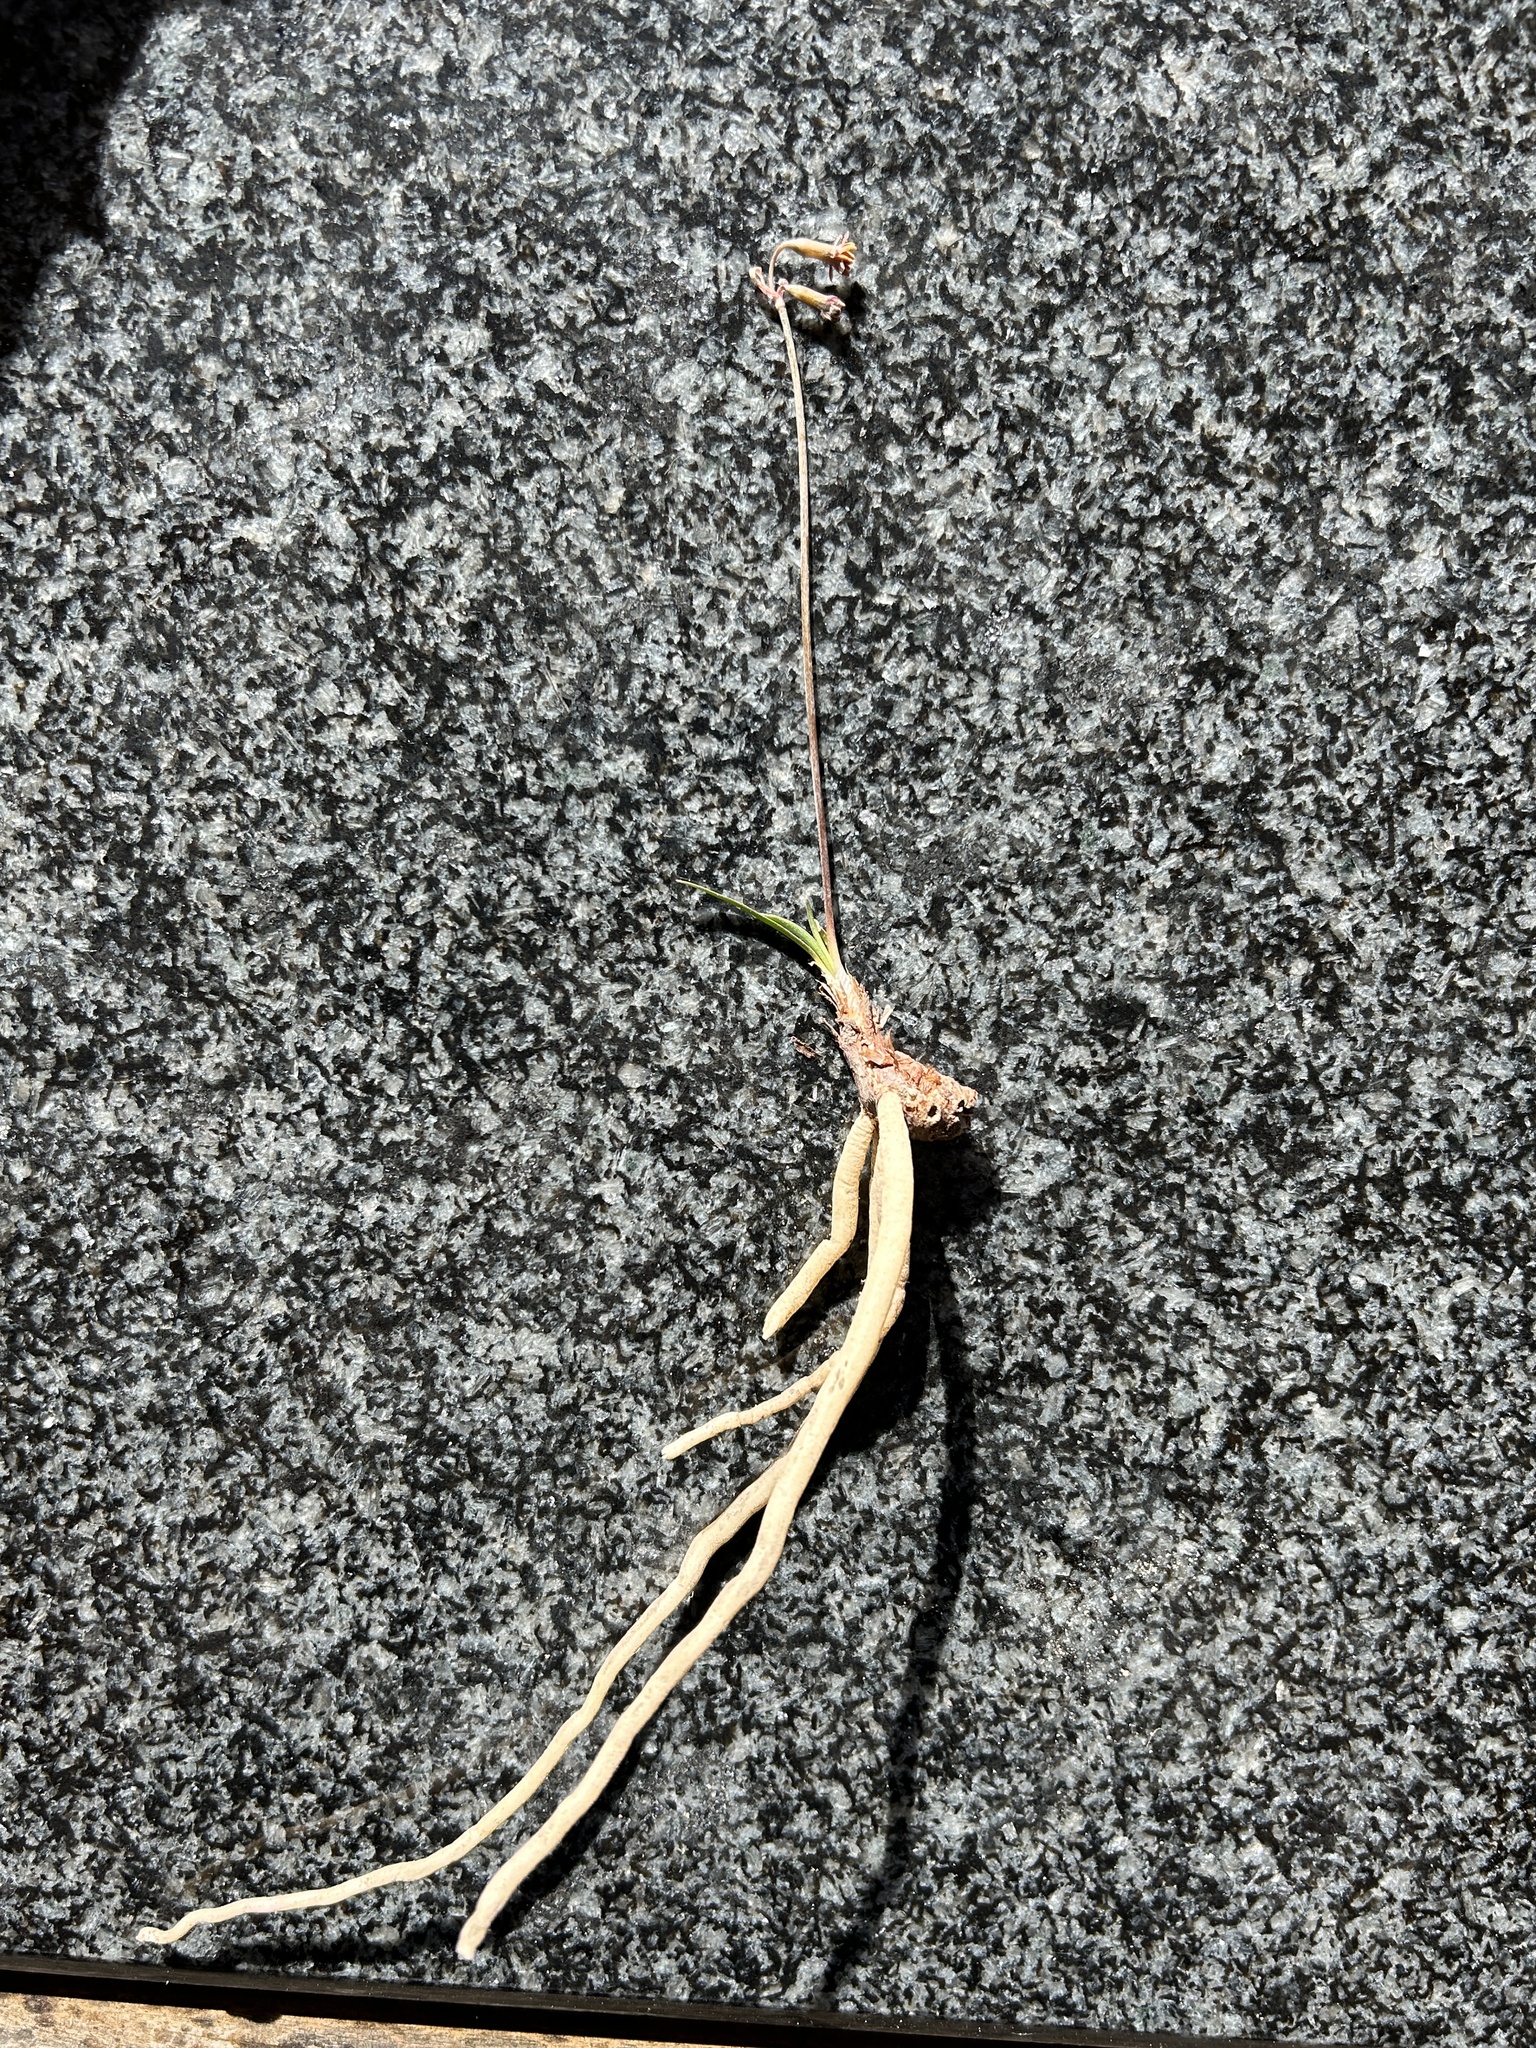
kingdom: Plantae
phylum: Tracheophyta
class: Liliopsida
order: Asparagales
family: Amaryllidaceae
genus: Tulbaghia
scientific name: Tulbaghia capensis
